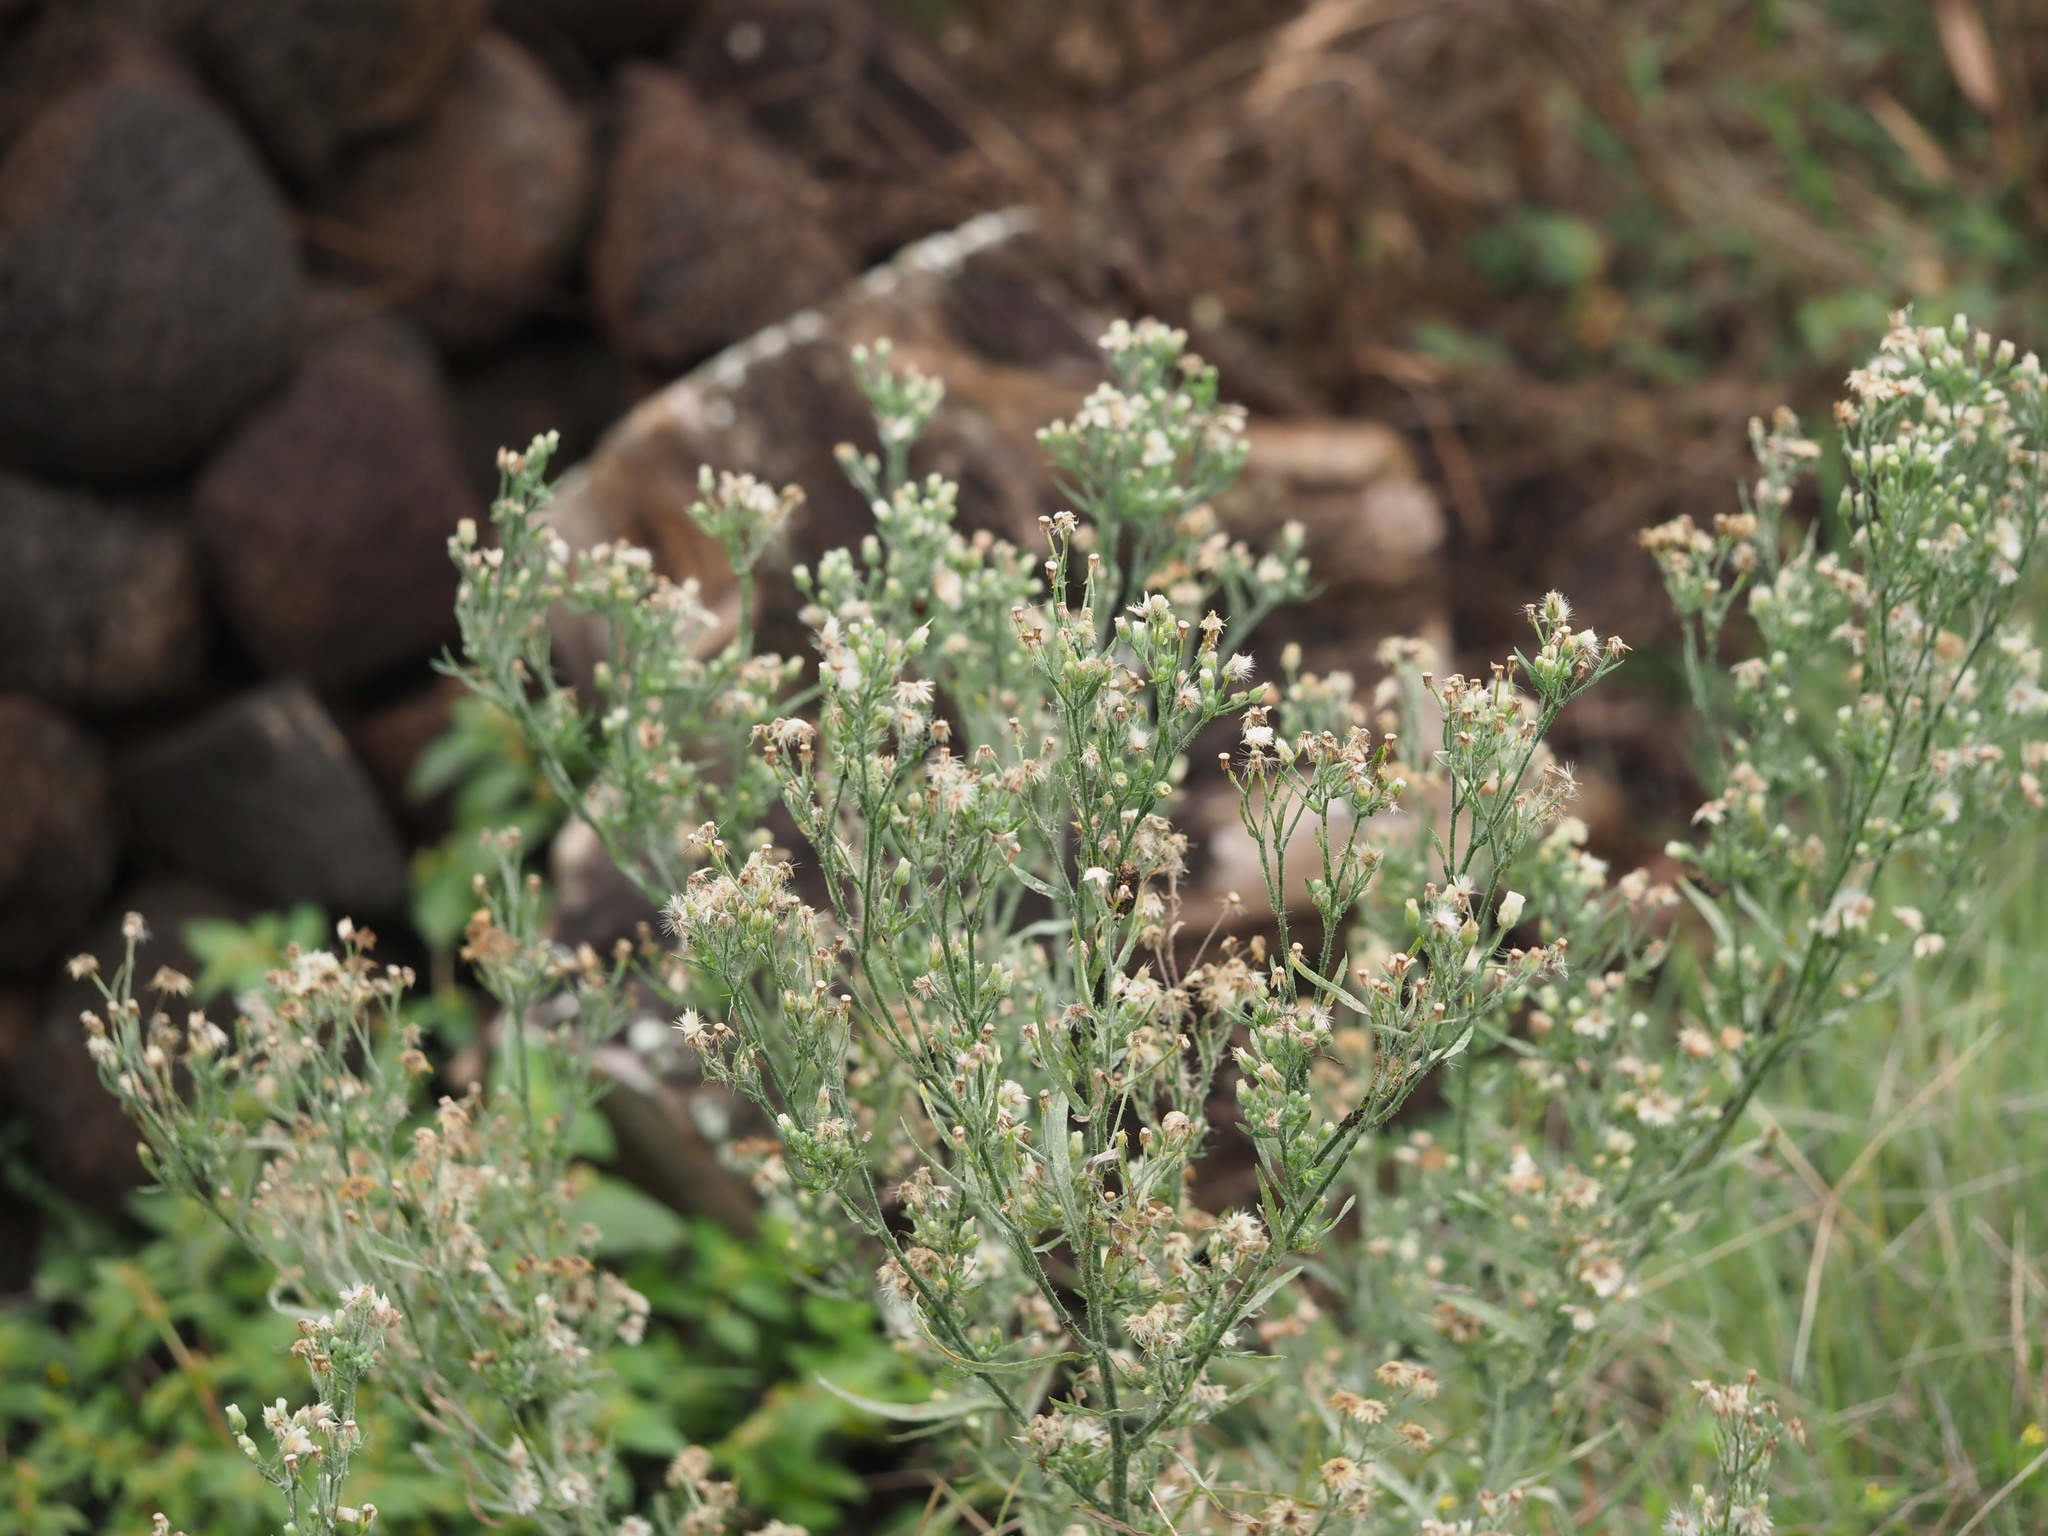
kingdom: Plantae
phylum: Tracheophyta
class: Magnoliopsida
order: Asterales
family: Asteraceae
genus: Erigeron
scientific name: Erigeron bonariensis
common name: Argentine fleabane
